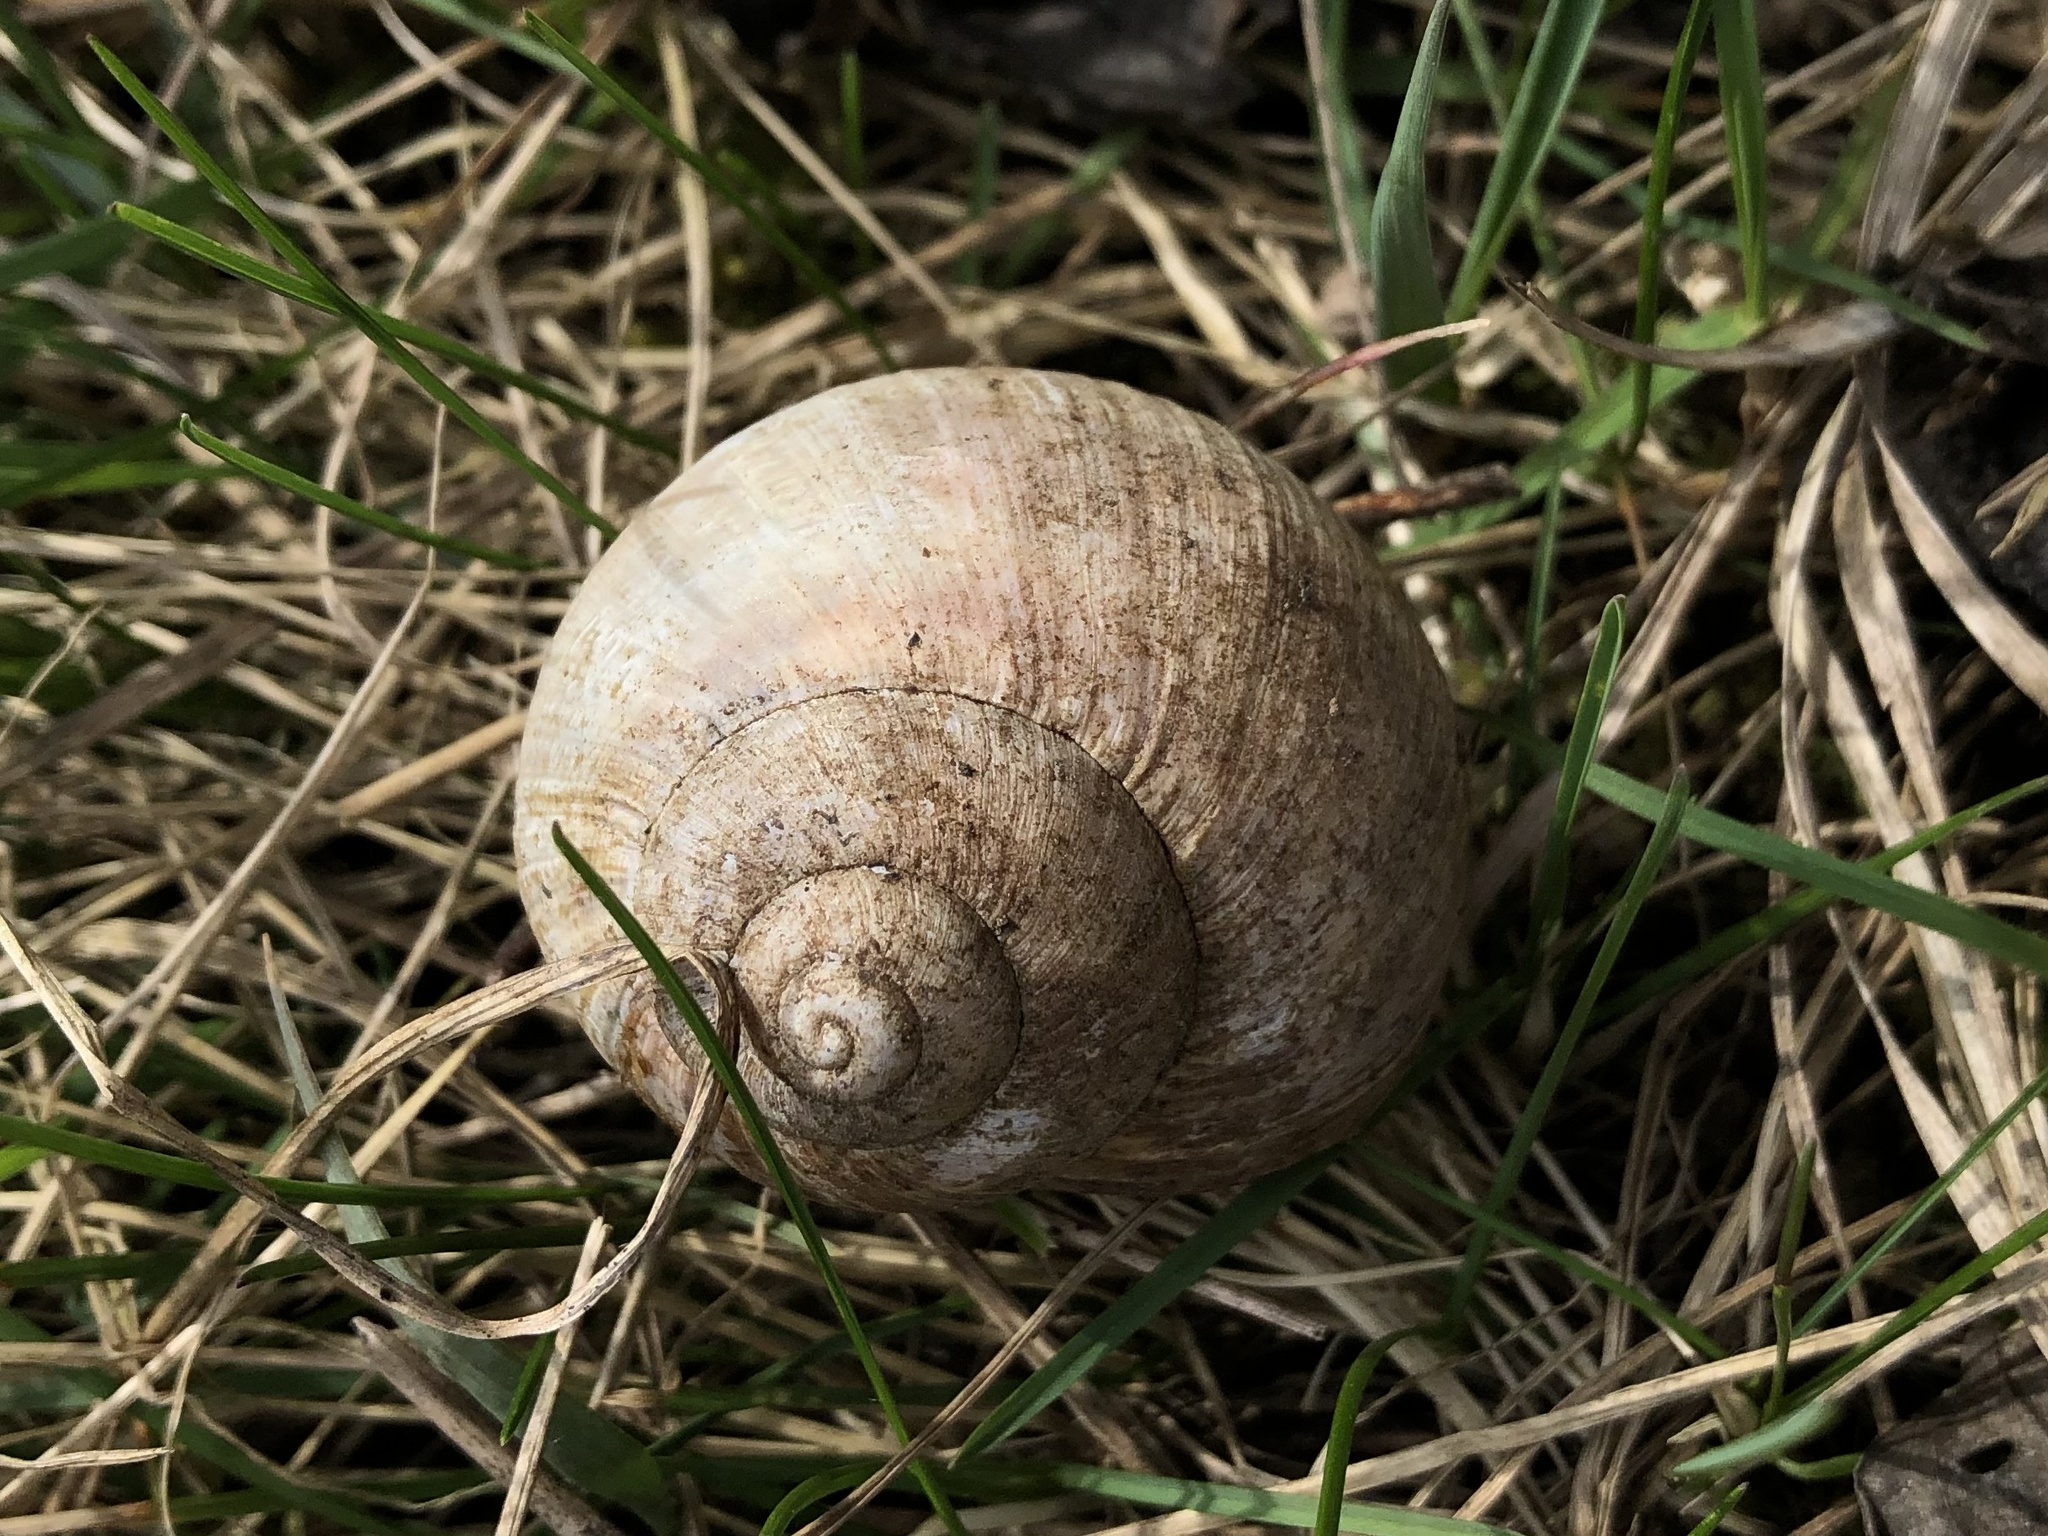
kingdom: Animalia
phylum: Mollusca
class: Gastropoda
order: Stylommatophora
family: Helicidae
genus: Helix
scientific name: Helix pomatia
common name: Roman snail
